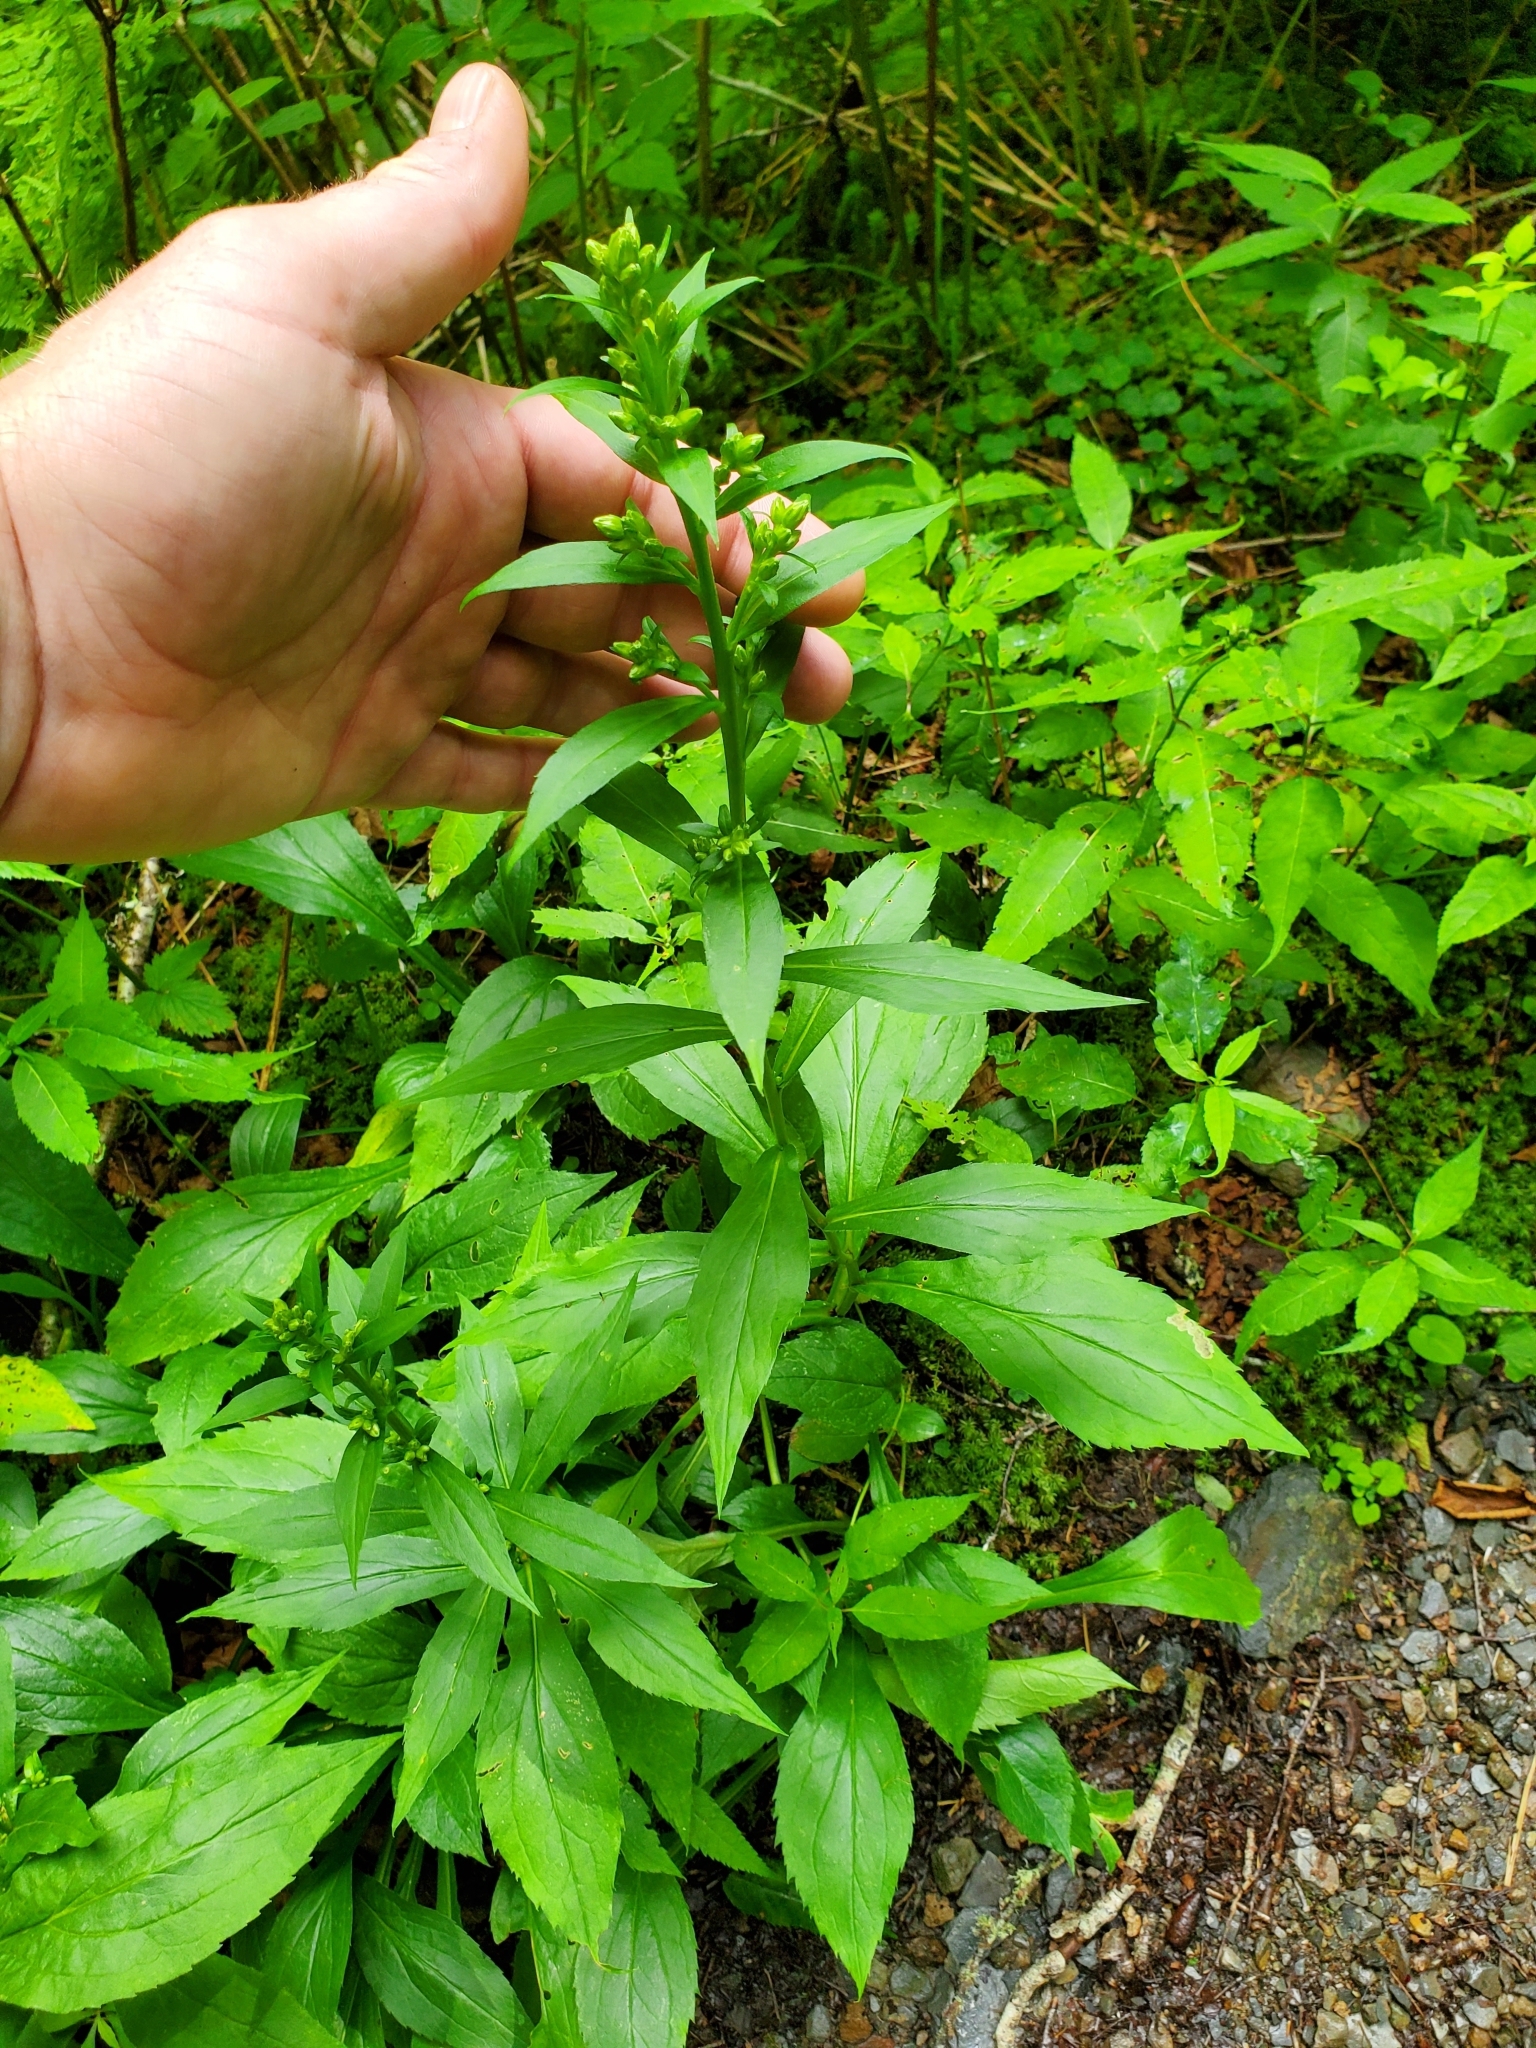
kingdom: Plantae
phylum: Tracheophyta
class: Magnoliopsida
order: Asterales
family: Asteraceae
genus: Solidago
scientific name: Solidago glomerata
